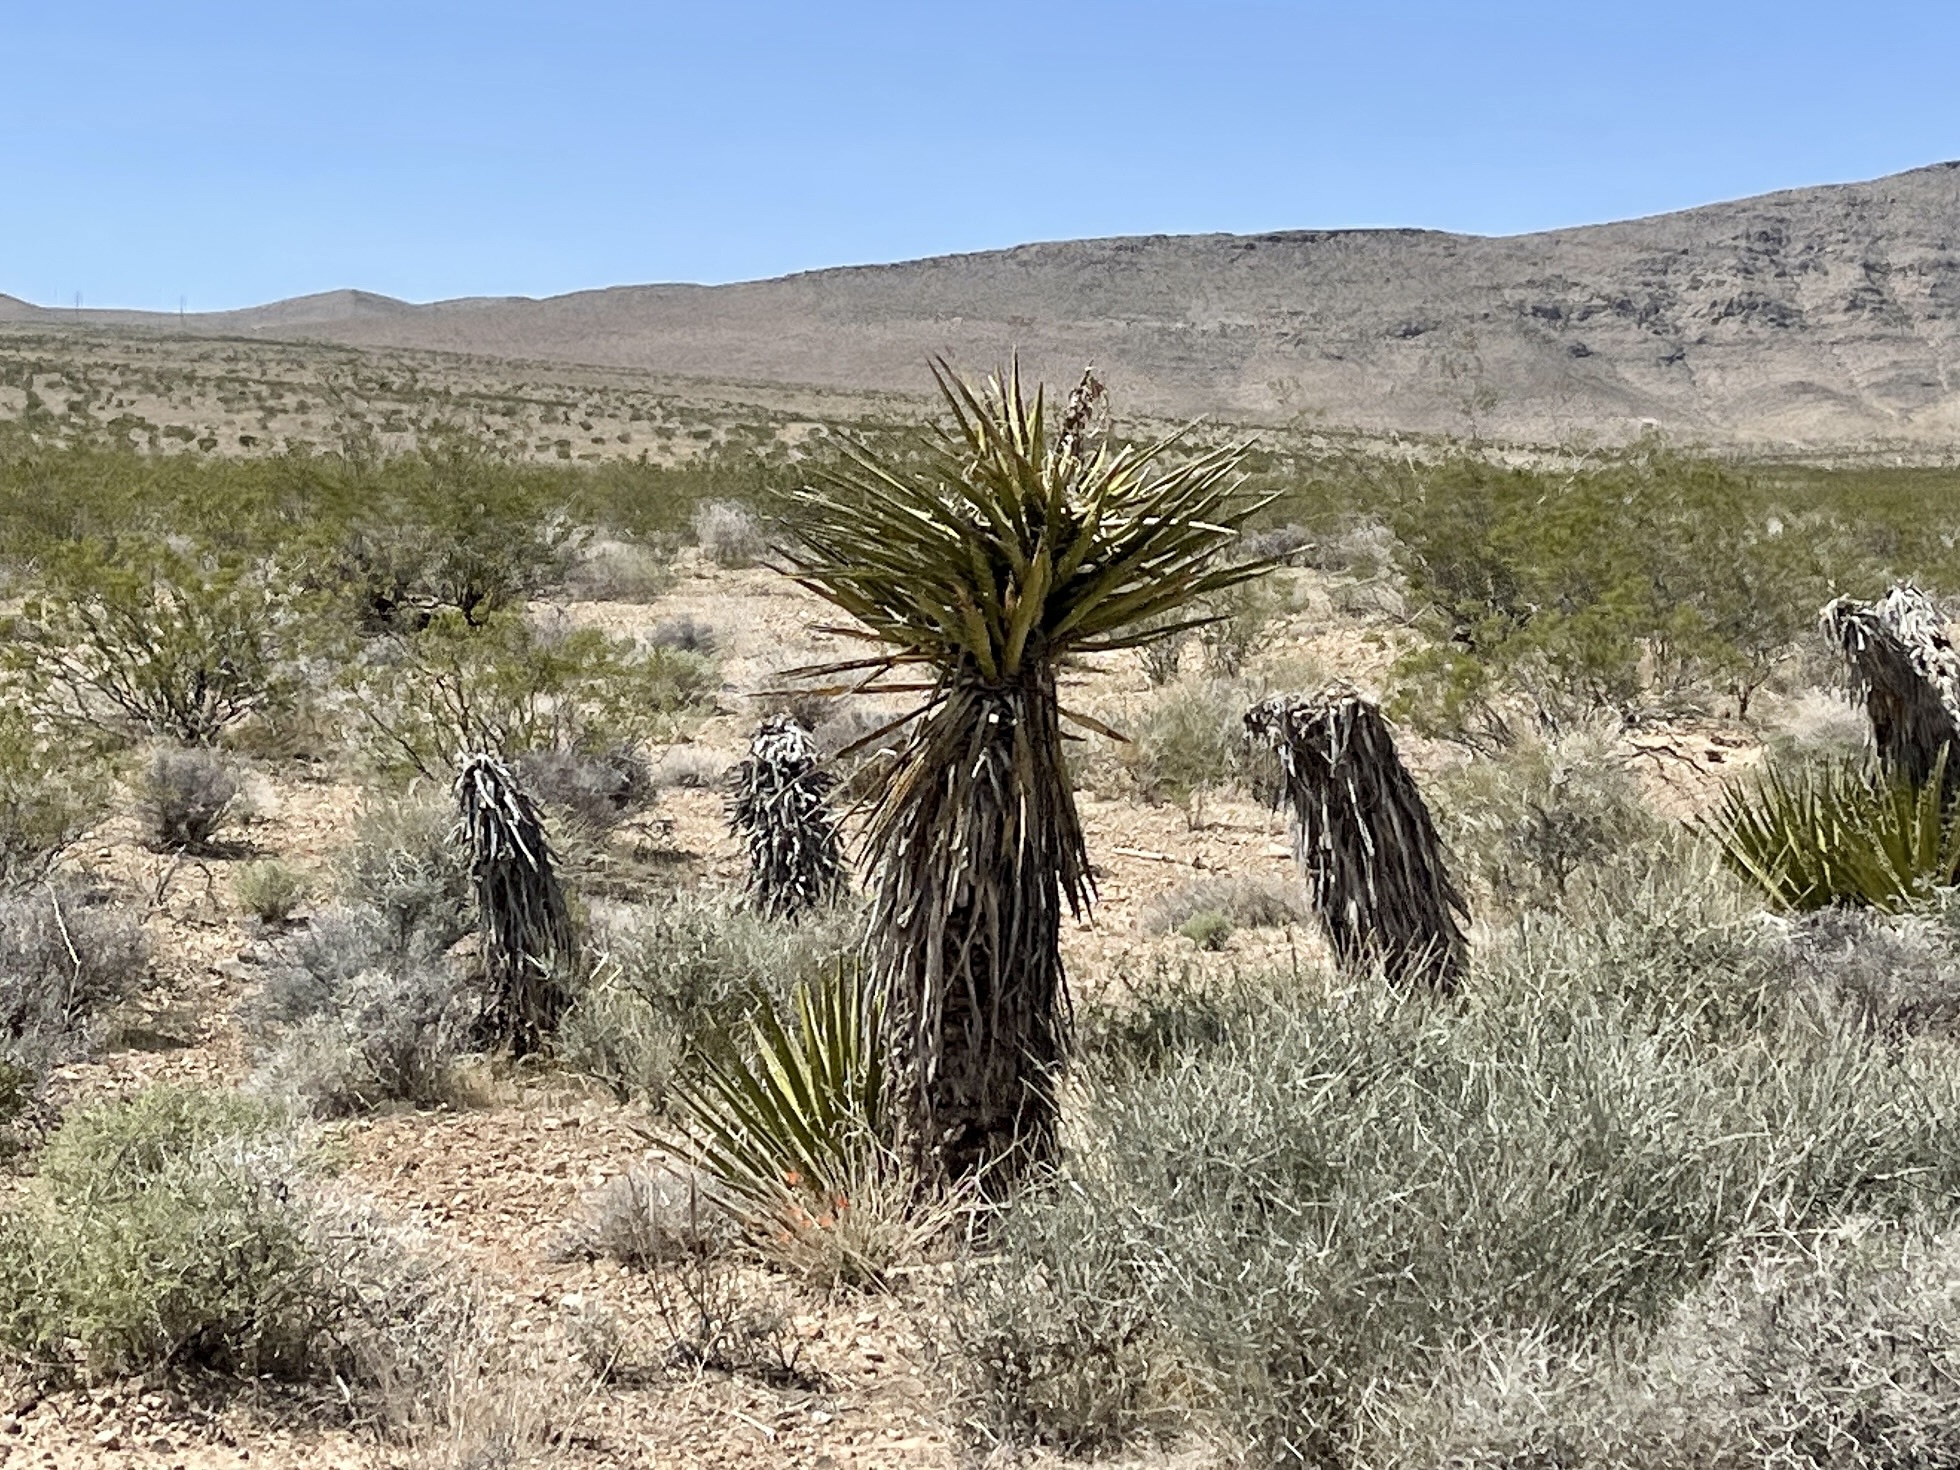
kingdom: Plantae
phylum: Tracheophyta
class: Liliopsida
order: Asparagales
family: Asparagaceae
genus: Yucca
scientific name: Yucca schidigera
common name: Mojave yucca
